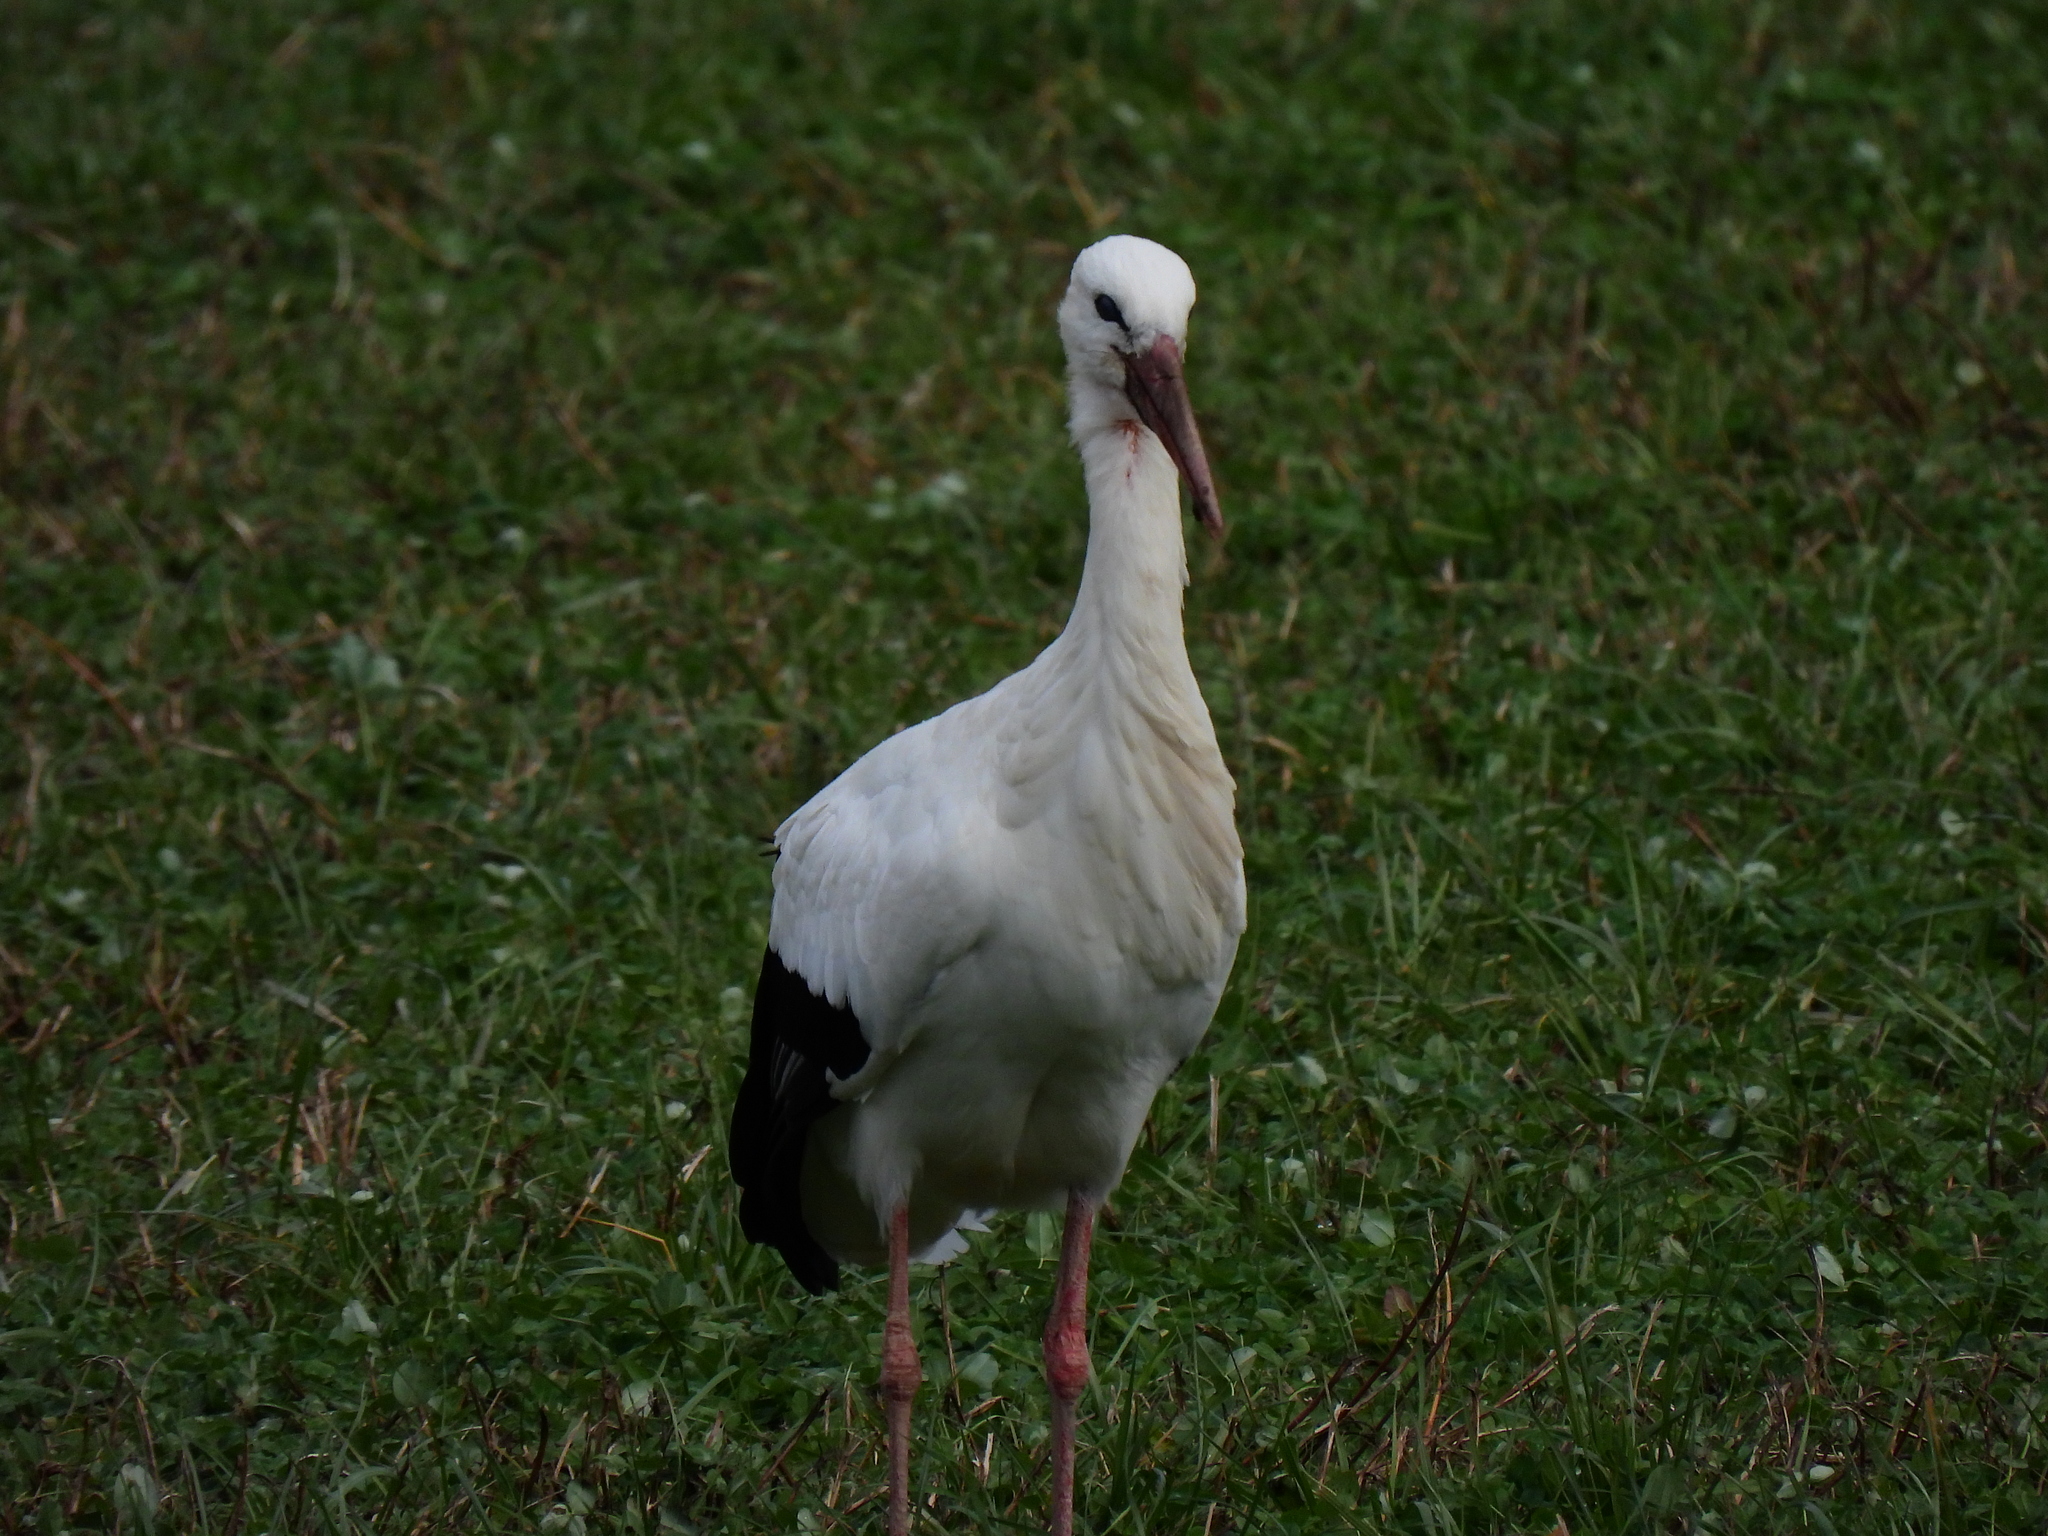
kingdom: Animalia
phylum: Chordata
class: Aves
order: Ciconiiformes
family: Ciconiidae
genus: Ciconia
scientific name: Ciconia ciconia
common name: White stork
